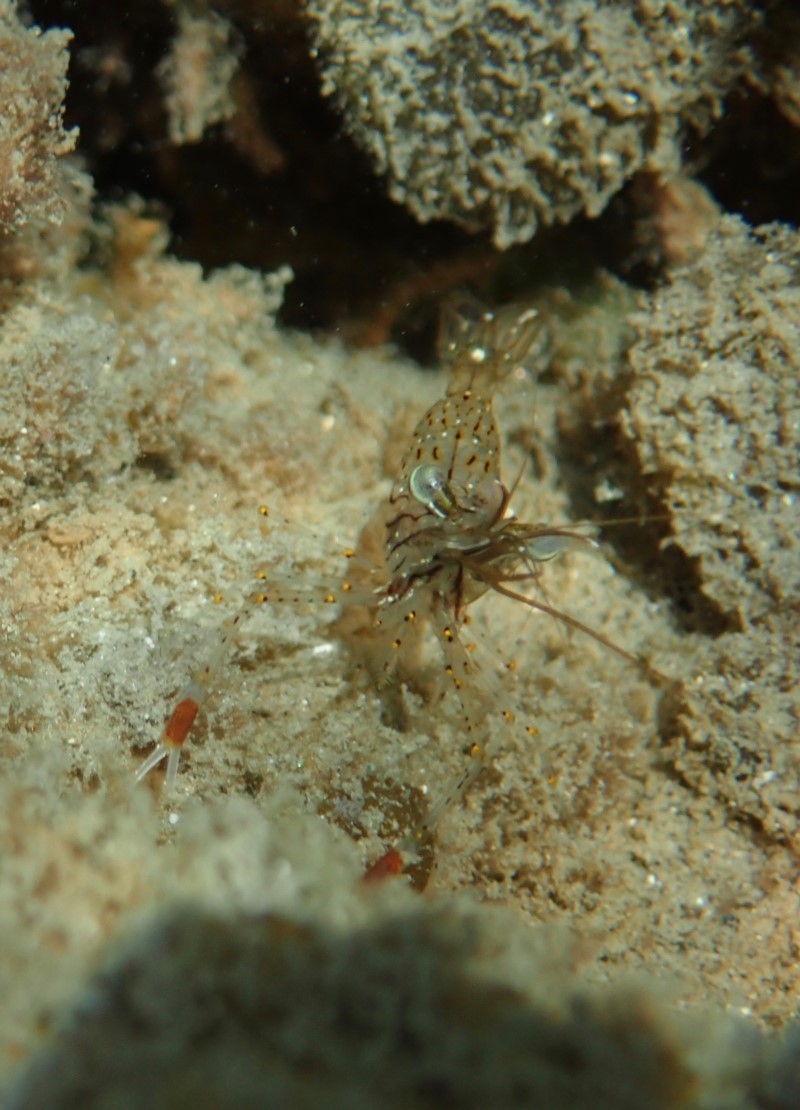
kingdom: Animalia
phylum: Arthropoda
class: Malacostraca
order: Decapoda
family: Palaemonidae
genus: Palaemon
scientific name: Palaemon serenus
